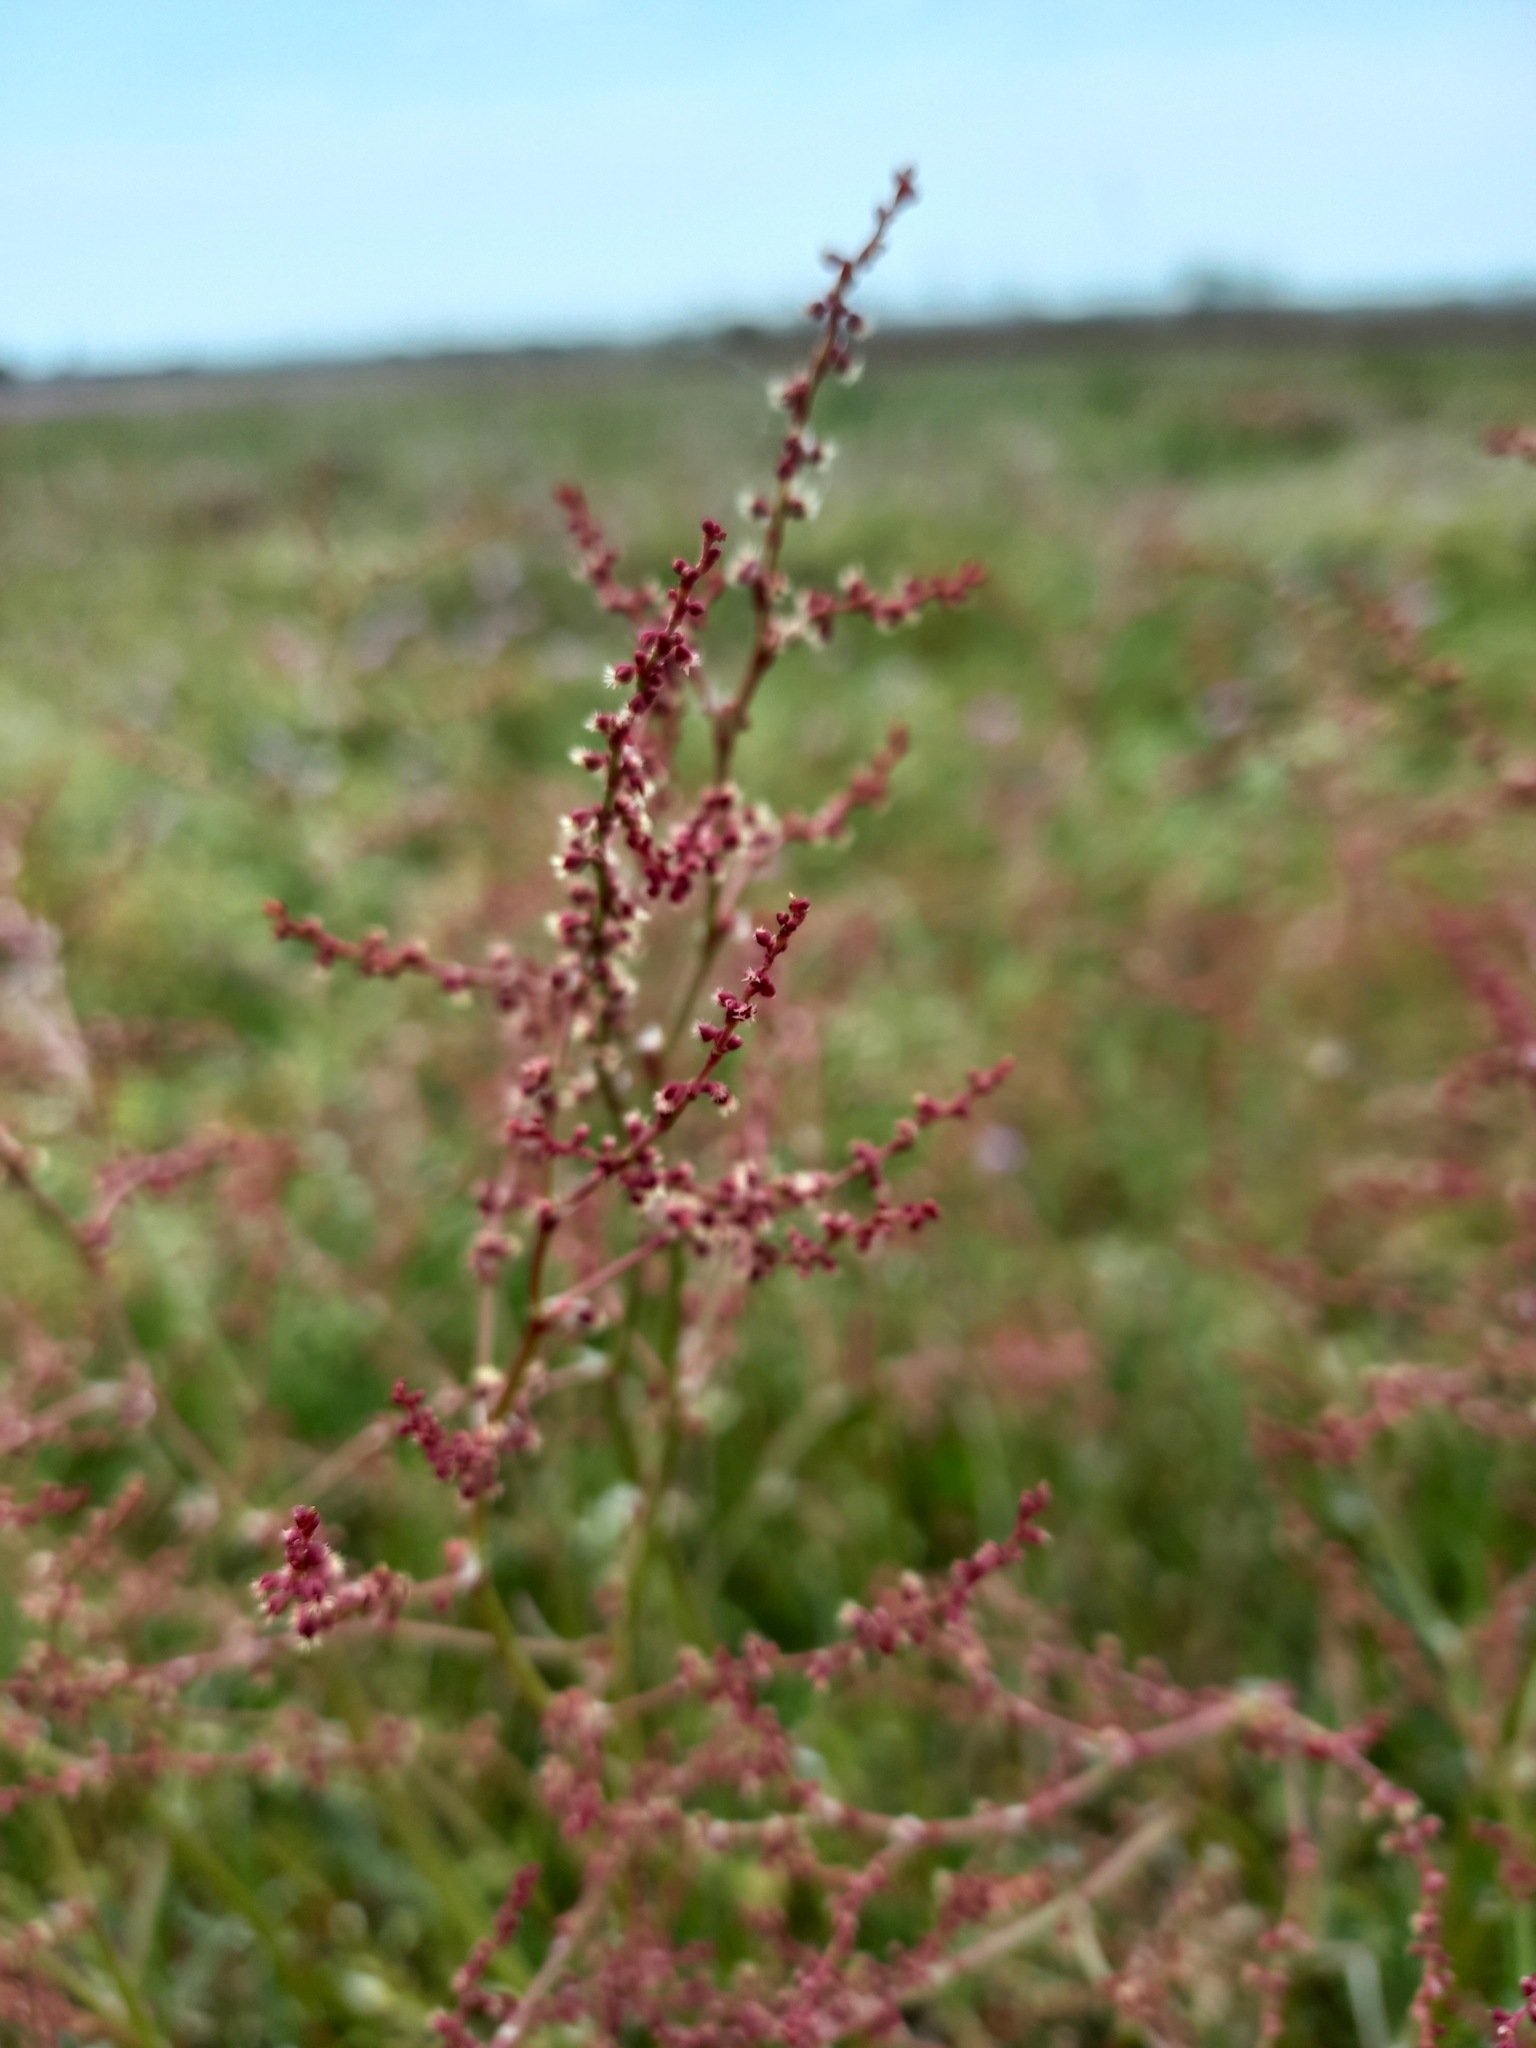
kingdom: Plantae
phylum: Tracheophyta
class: Magnoliopsida
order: Caryophyllales
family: Polygonaceae
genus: Rumex
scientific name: Rumex acetosella
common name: Common sheep sorrel
